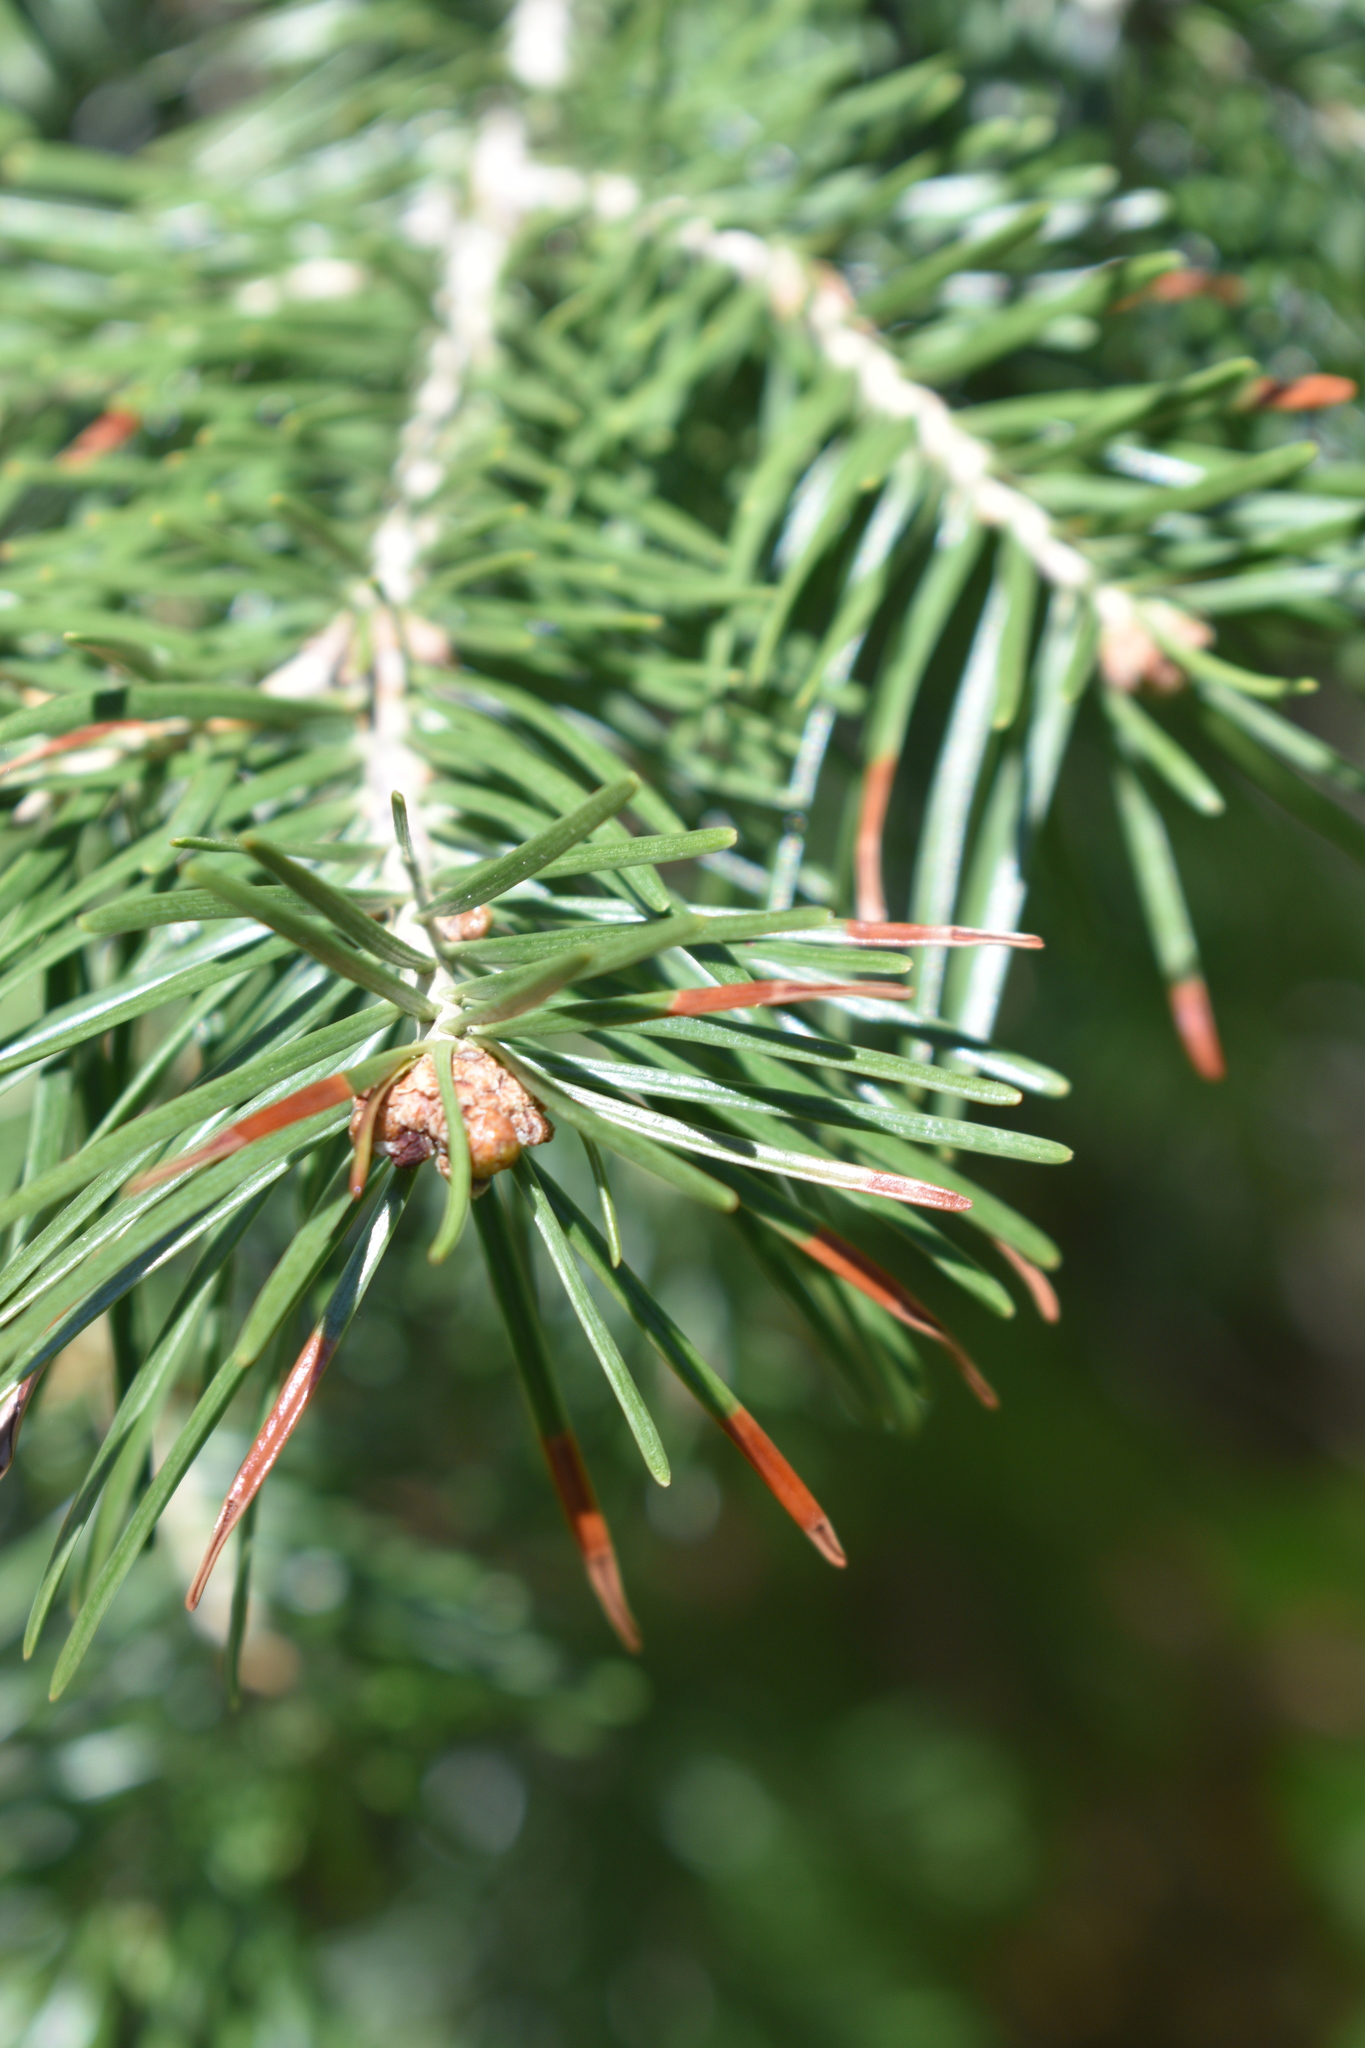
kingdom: Plantae
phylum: Tracheophyta
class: Pinopsida
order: Pinales
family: Pinaceae
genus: Pseudotsuga
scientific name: Pseudotsuga menziesii
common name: Douglas fir
